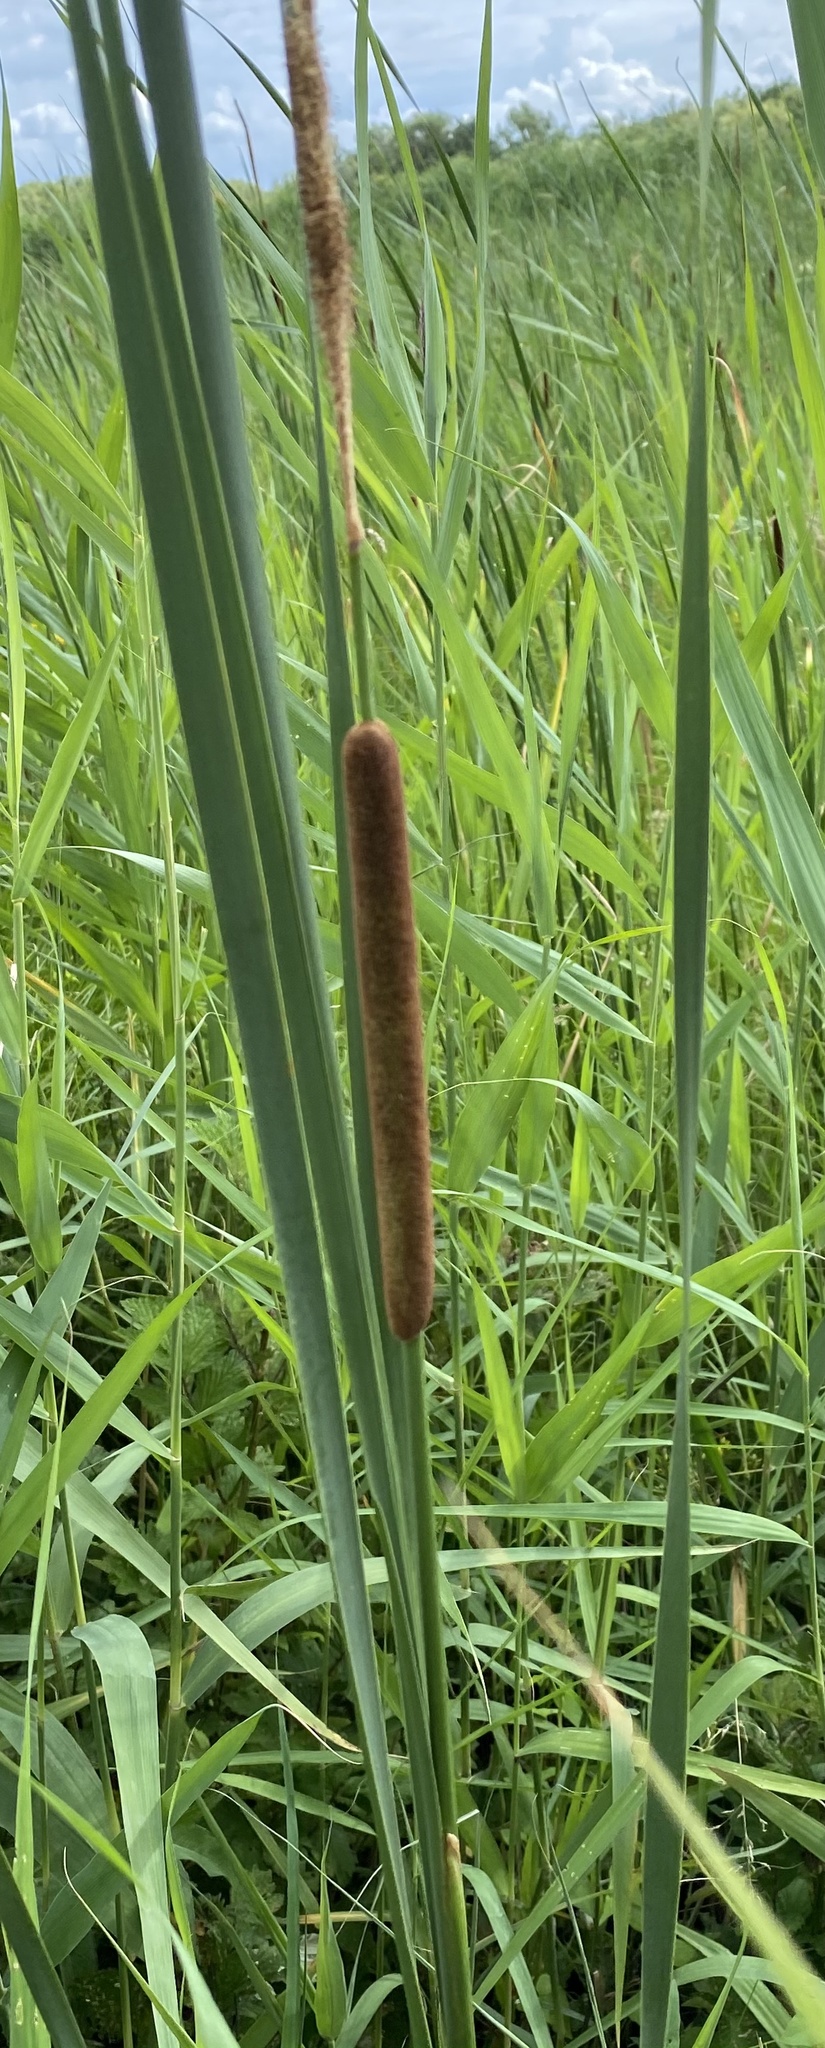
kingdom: Plantae
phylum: Tracheophyta
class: Liliopsida
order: Poales
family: Typhaceae
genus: Typha
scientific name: Typha angustifolia
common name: Lesser bulrush
